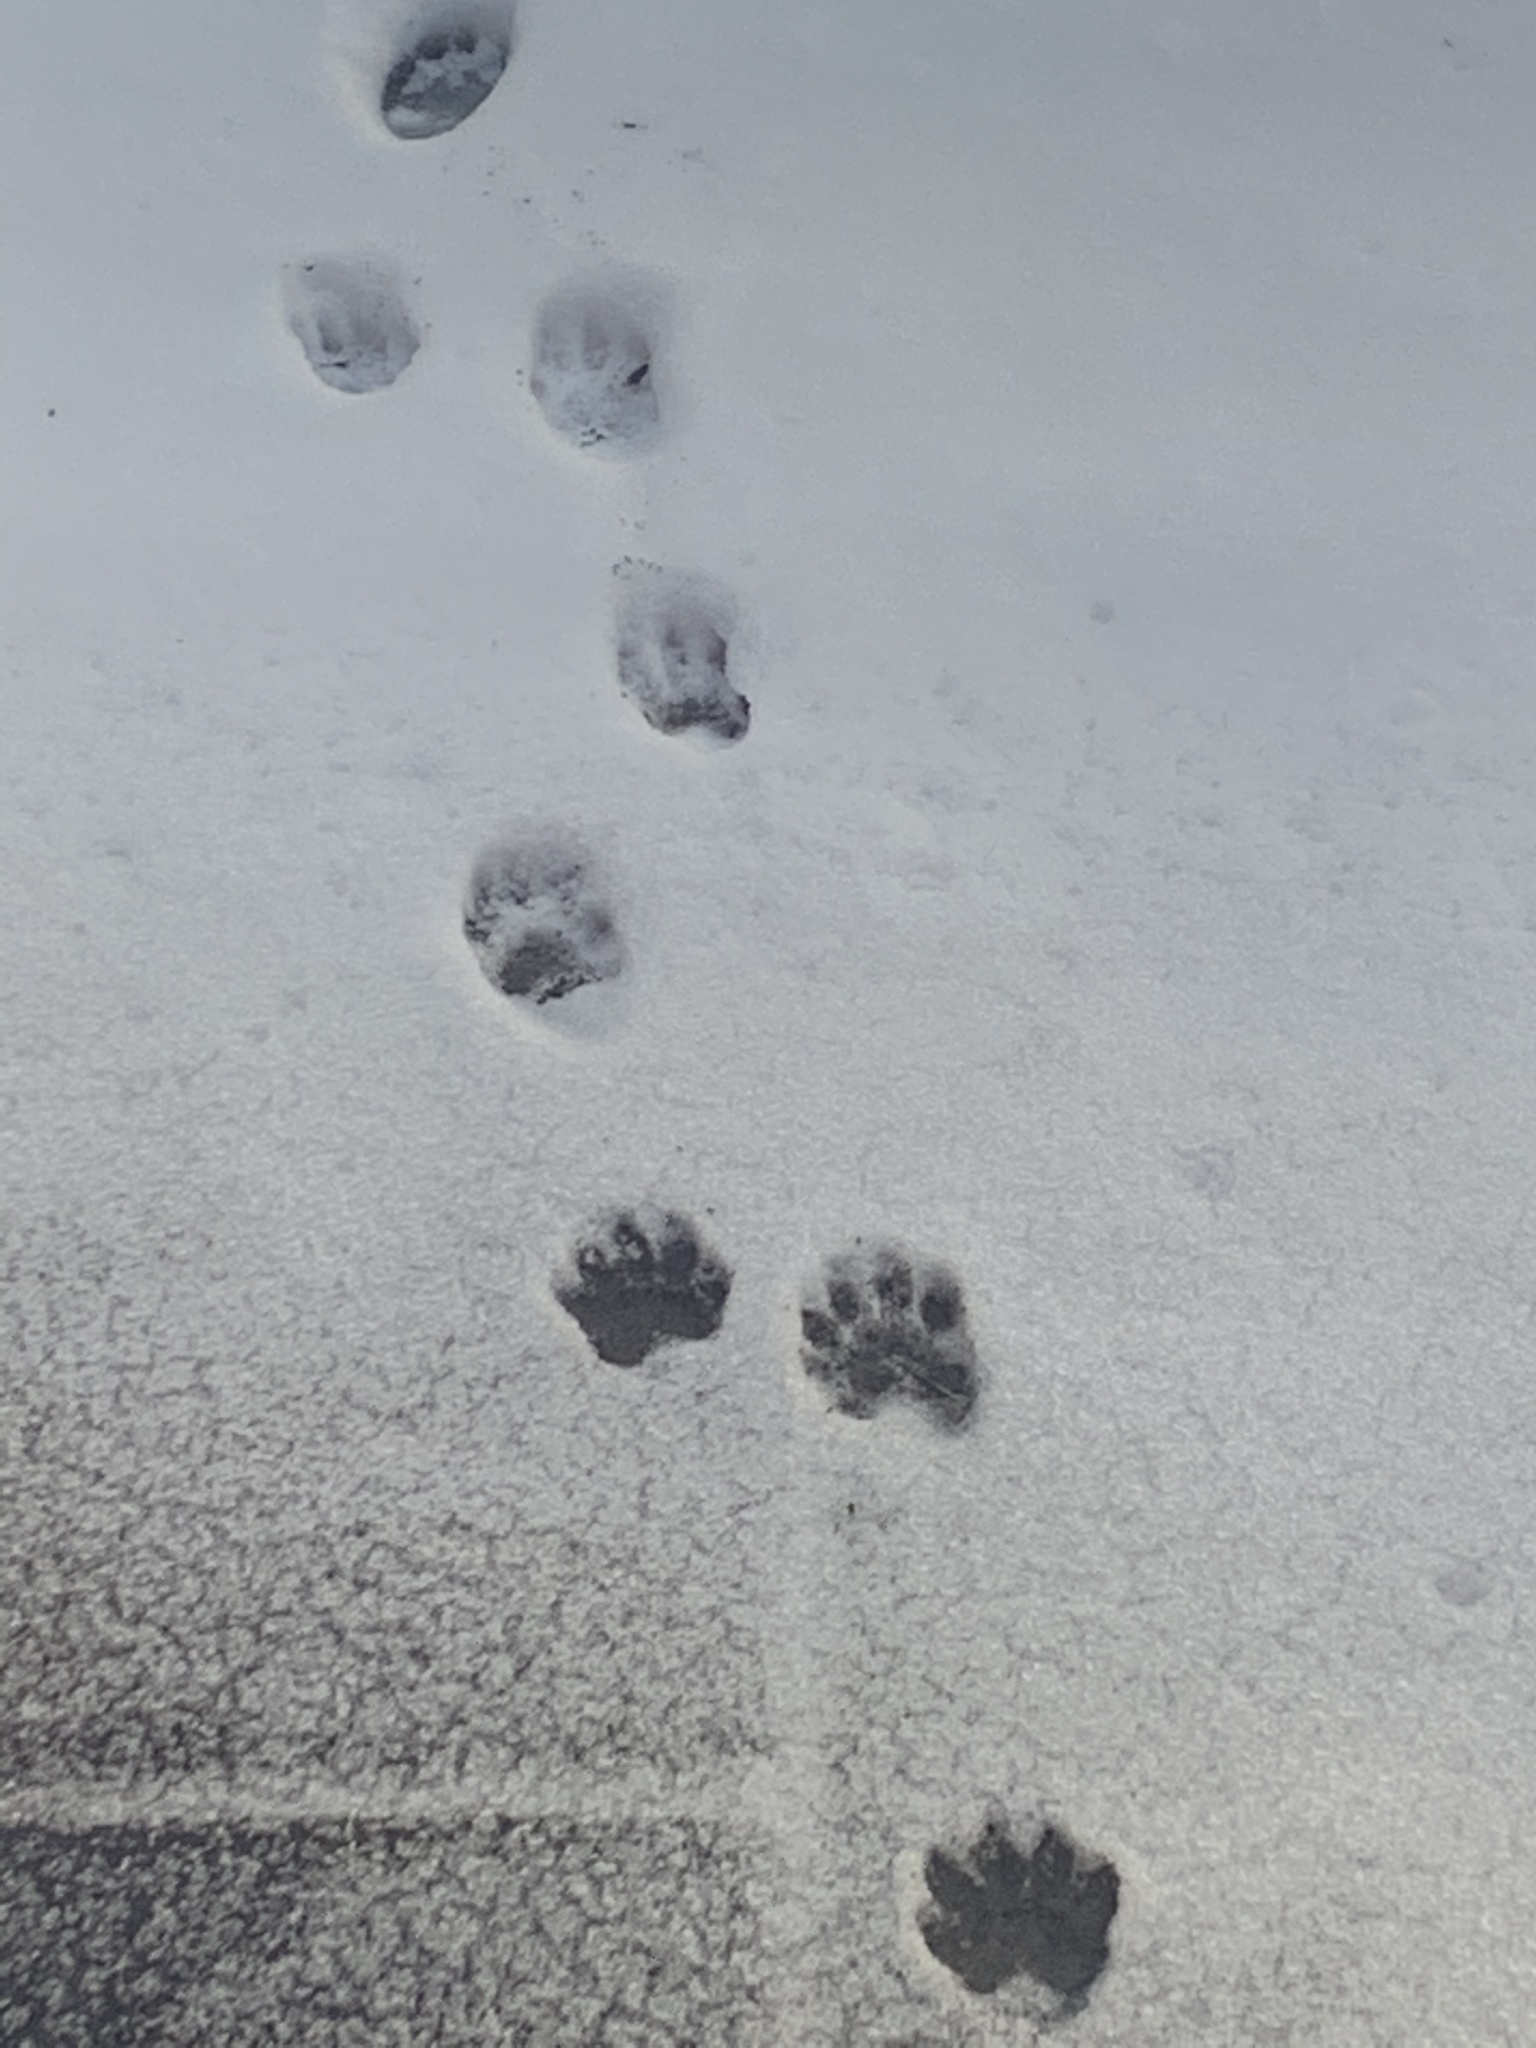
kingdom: Animalia
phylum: Chordata
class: Mammalia
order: Carnivora
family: Procyonidae
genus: Procyon
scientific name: Procyon lotor
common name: Raccoon
